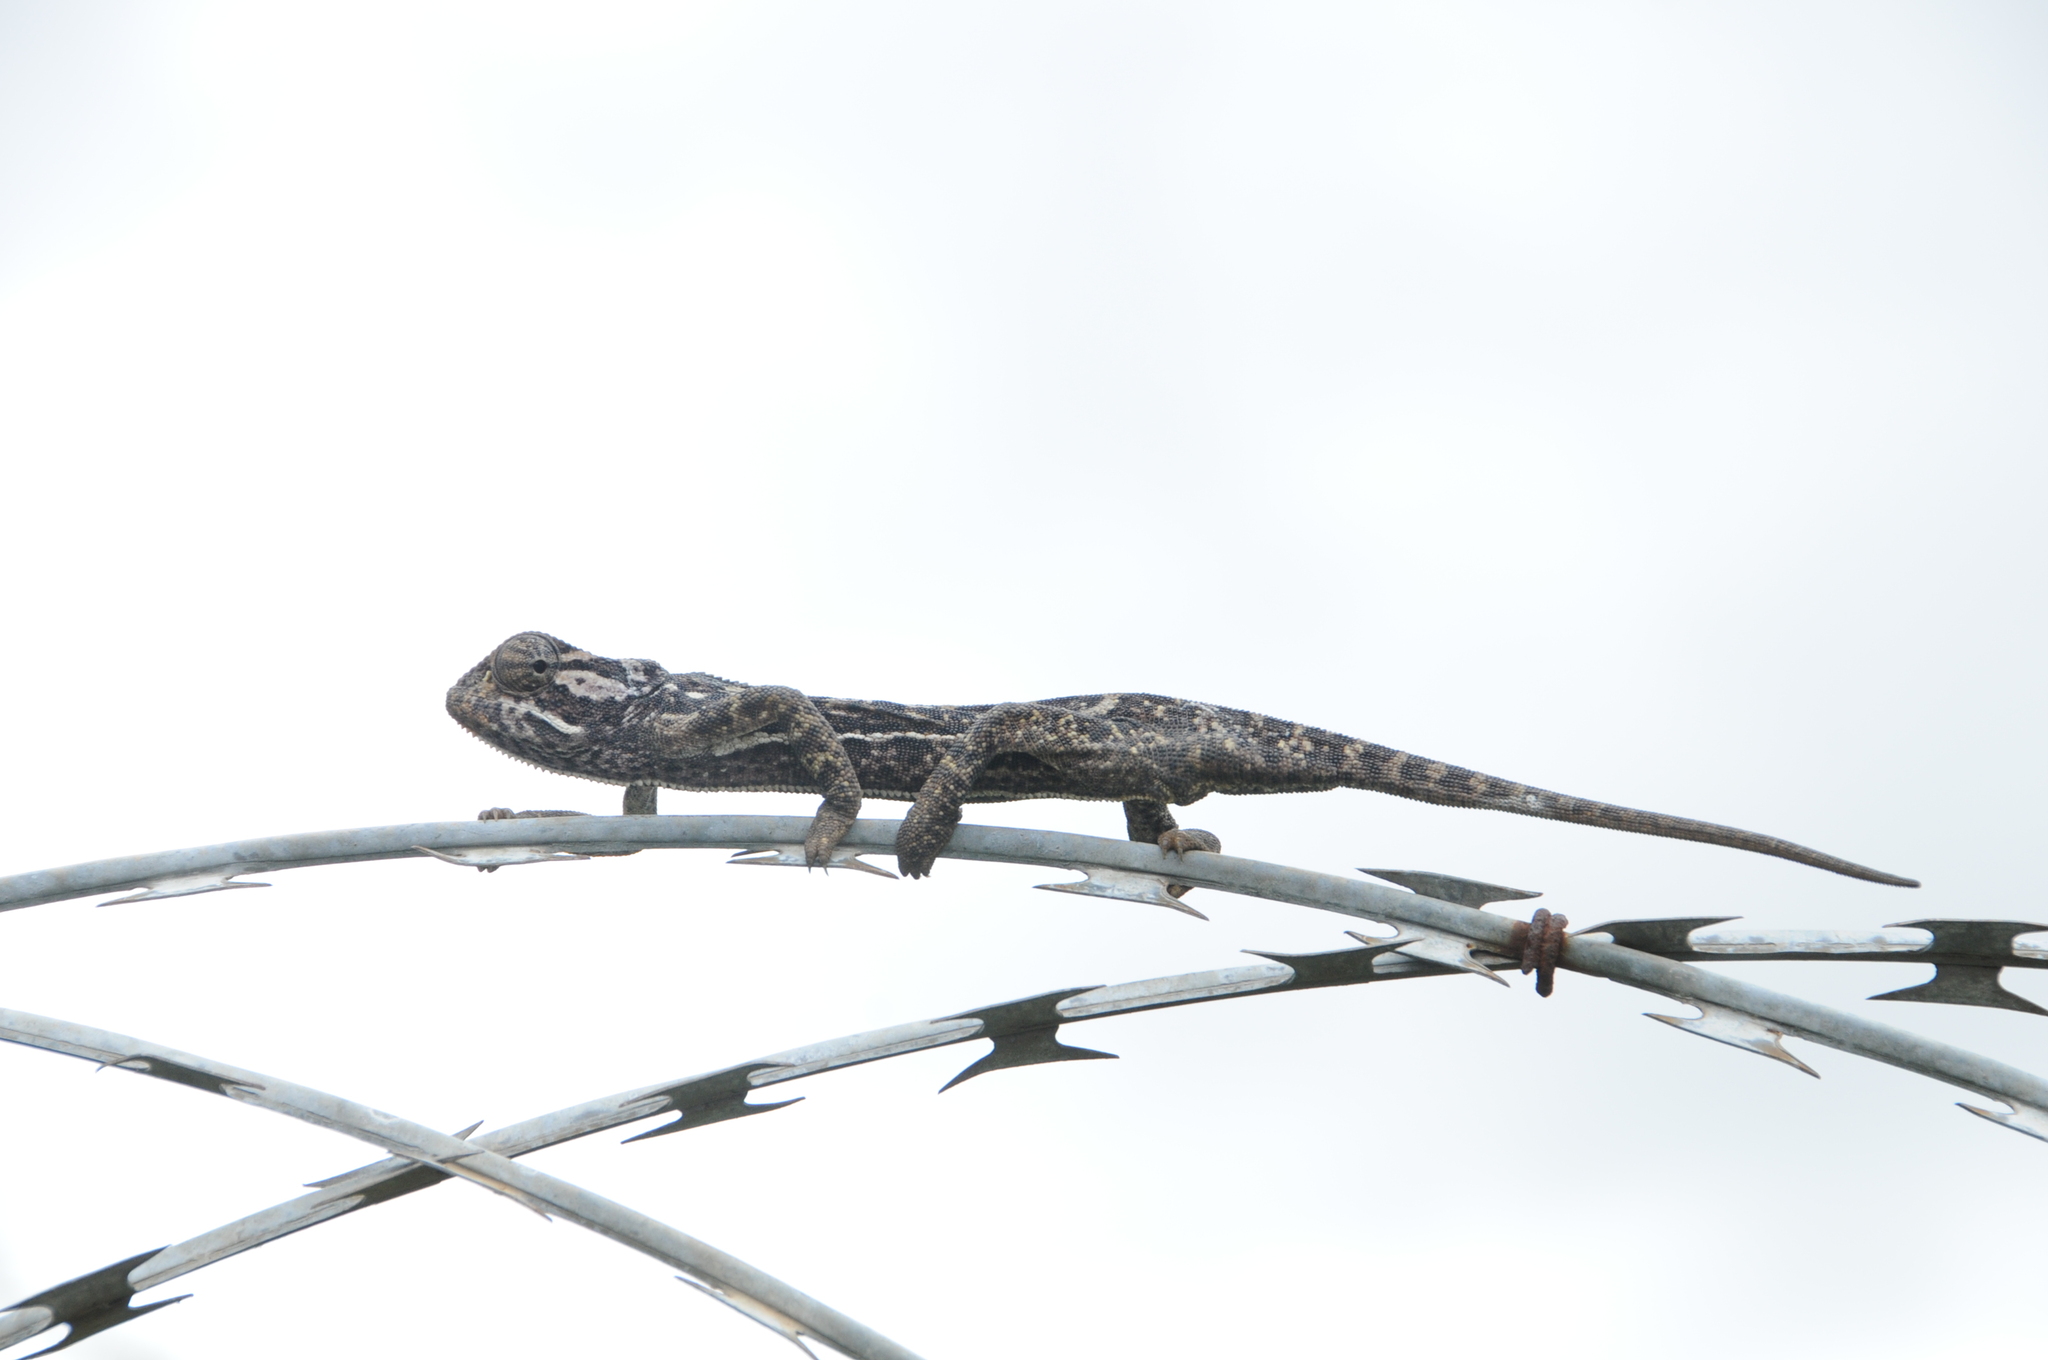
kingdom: Animalia
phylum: Chordata
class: Squamata
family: Chamaeleonidae
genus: Chamaeleo
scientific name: Chamaeleo dilepis
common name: Flapneck chameleon
